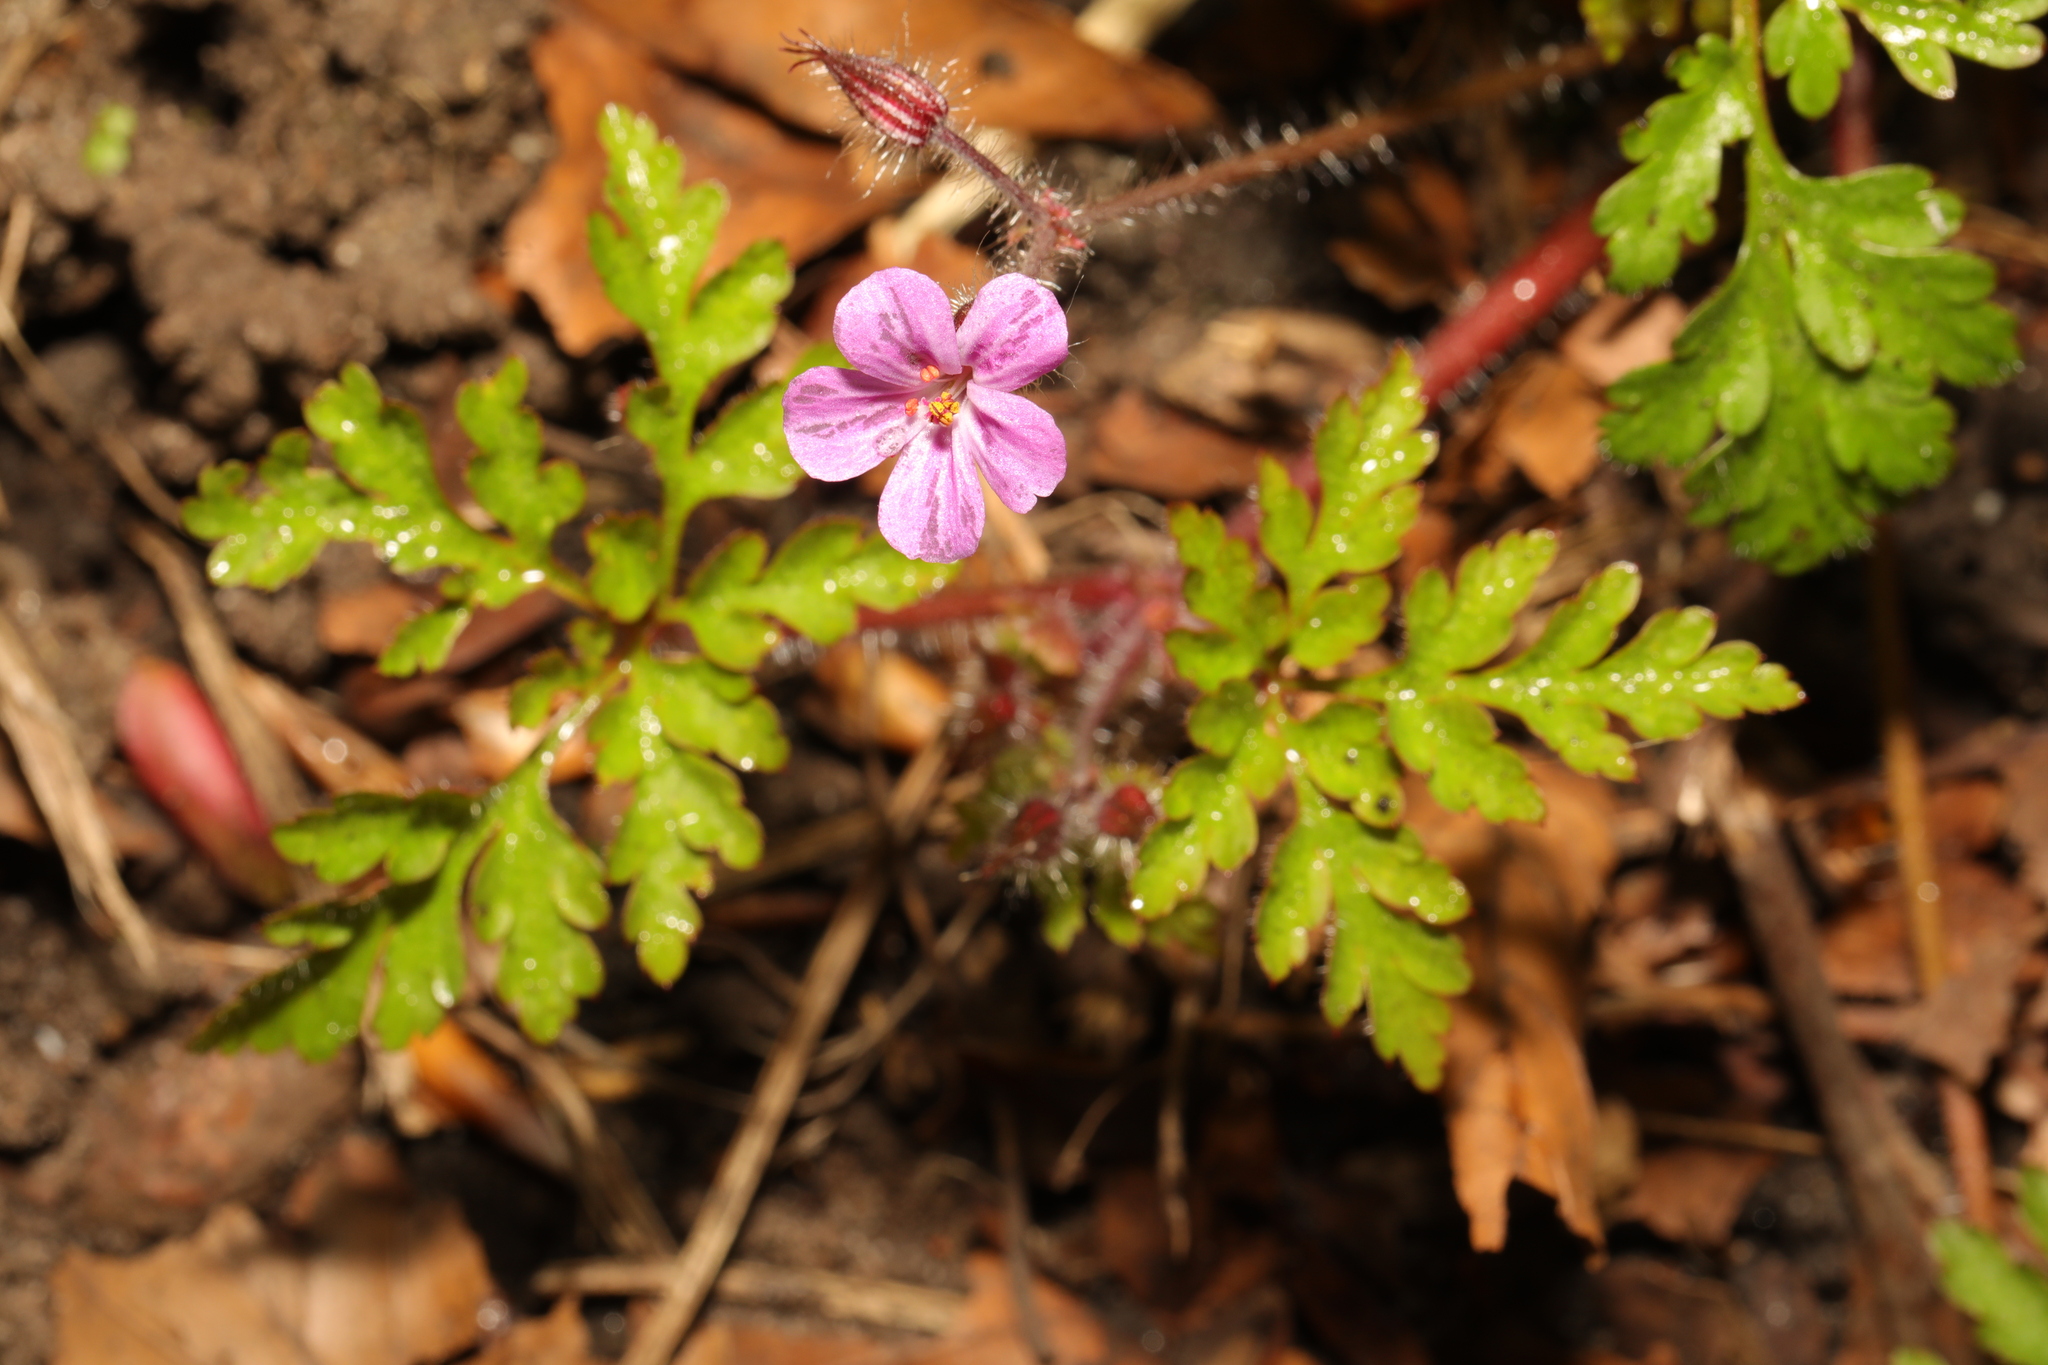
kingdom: Plantae
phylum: Tracheophyta
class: Magnoliopsida
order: Geraniales
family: Geraniaceae
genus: Geranium
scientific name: Geranium robertianum
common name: Herb-robert
